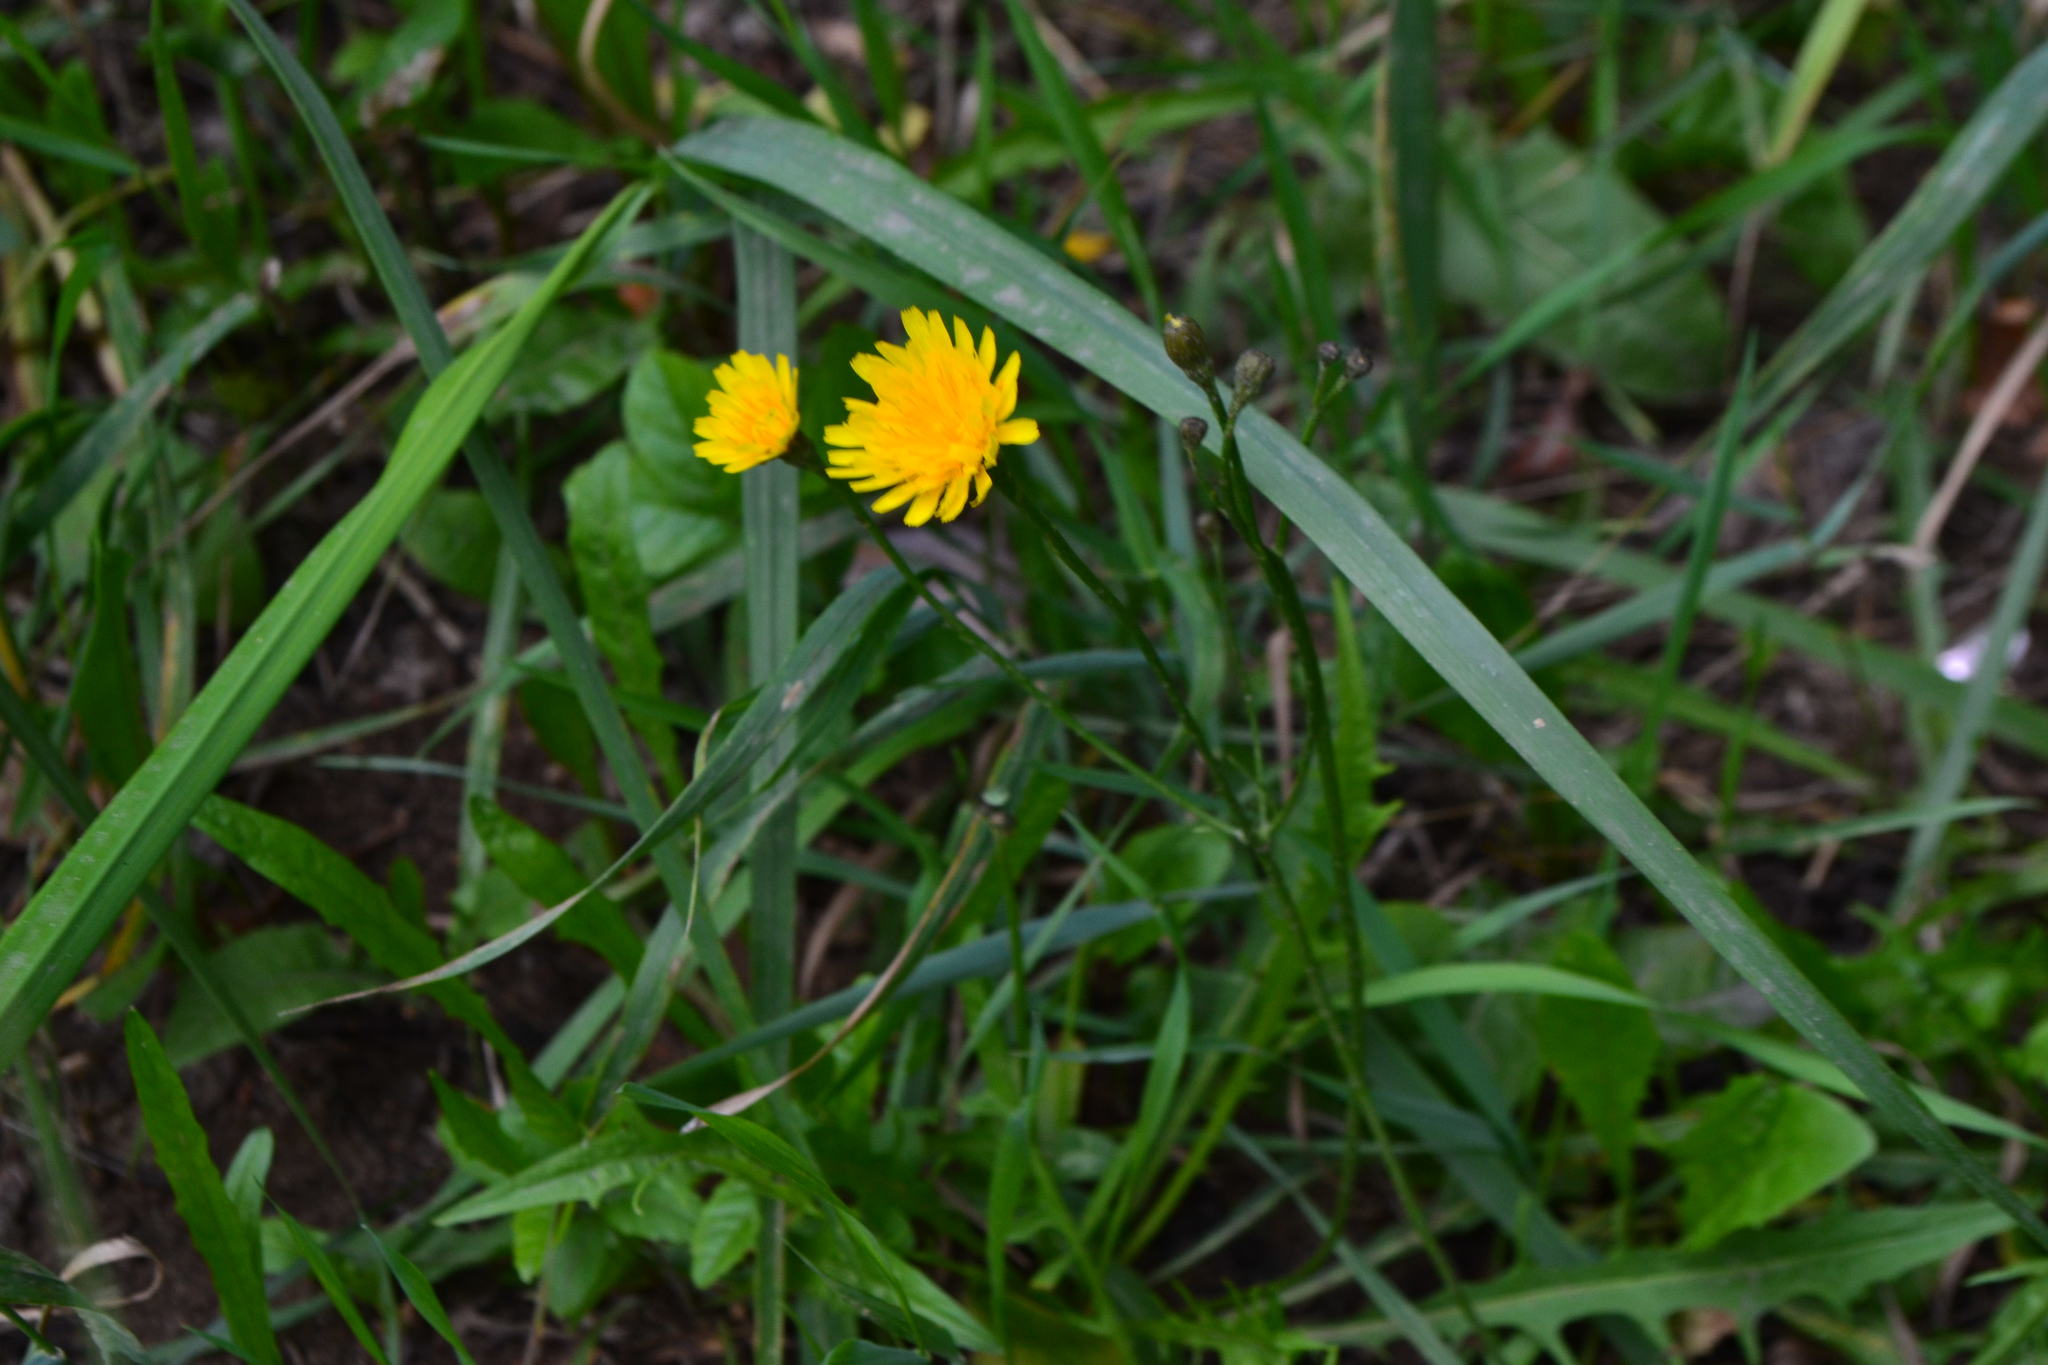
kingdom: Plantae
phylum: Tracheophyta
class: Magnoliopsida
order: Asterales
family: Asteraceae
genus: Scorzoneroides
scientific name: Scorzoneroides autumnalis
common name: Autumn hawkbit
